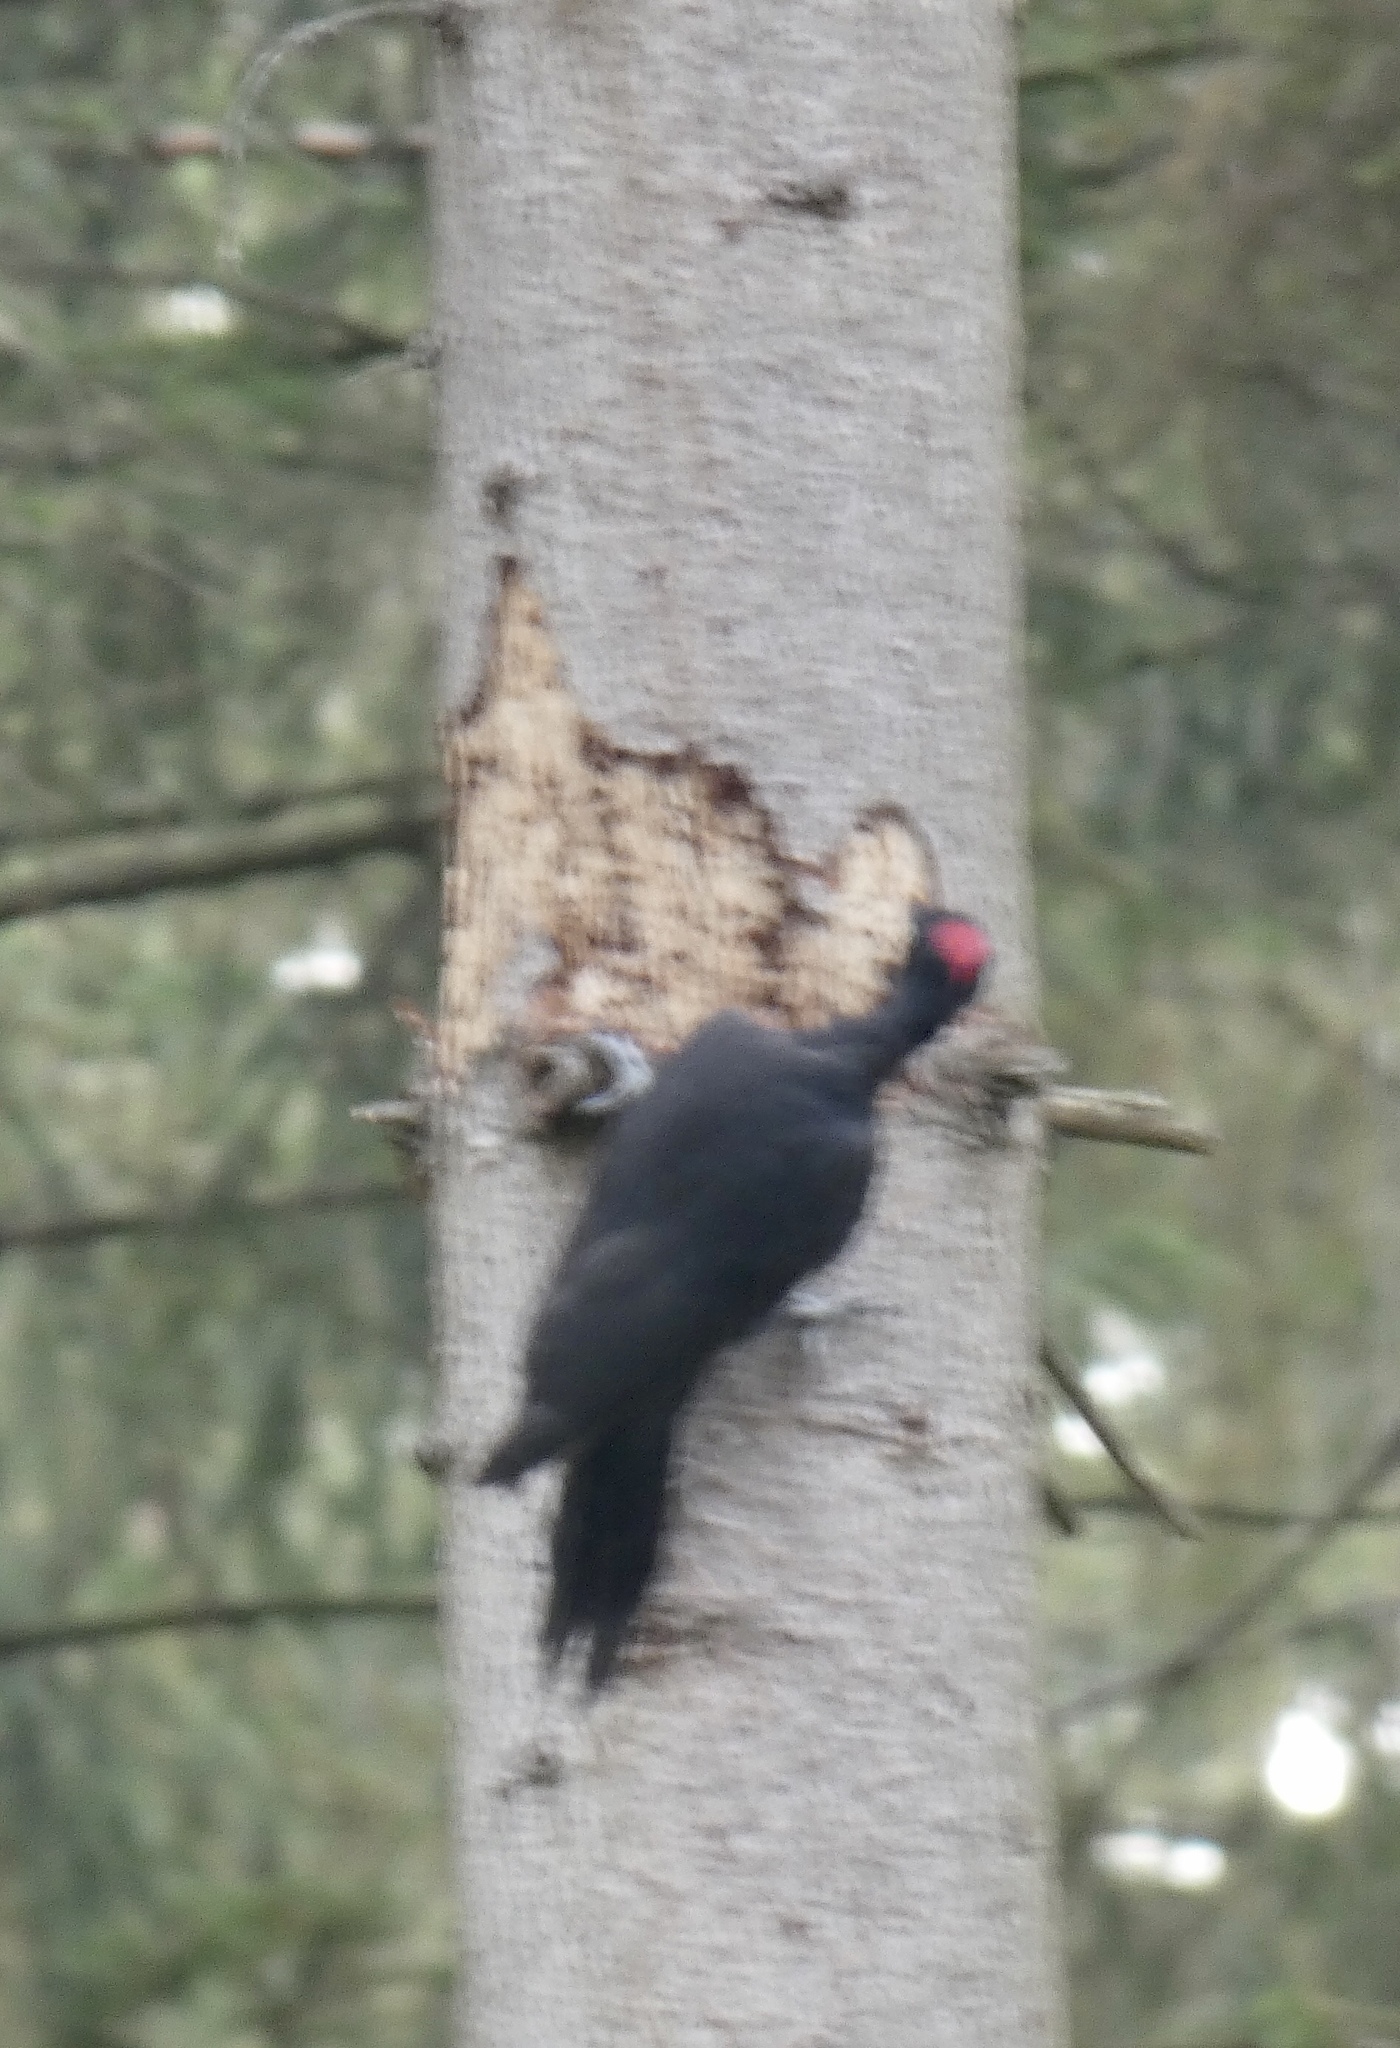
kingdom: Animalia
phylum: Chordata
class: Aves
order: Piciformes
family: Picidae
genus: Dryocopus
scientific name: Dryocopus martius
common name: Black woodpecker
